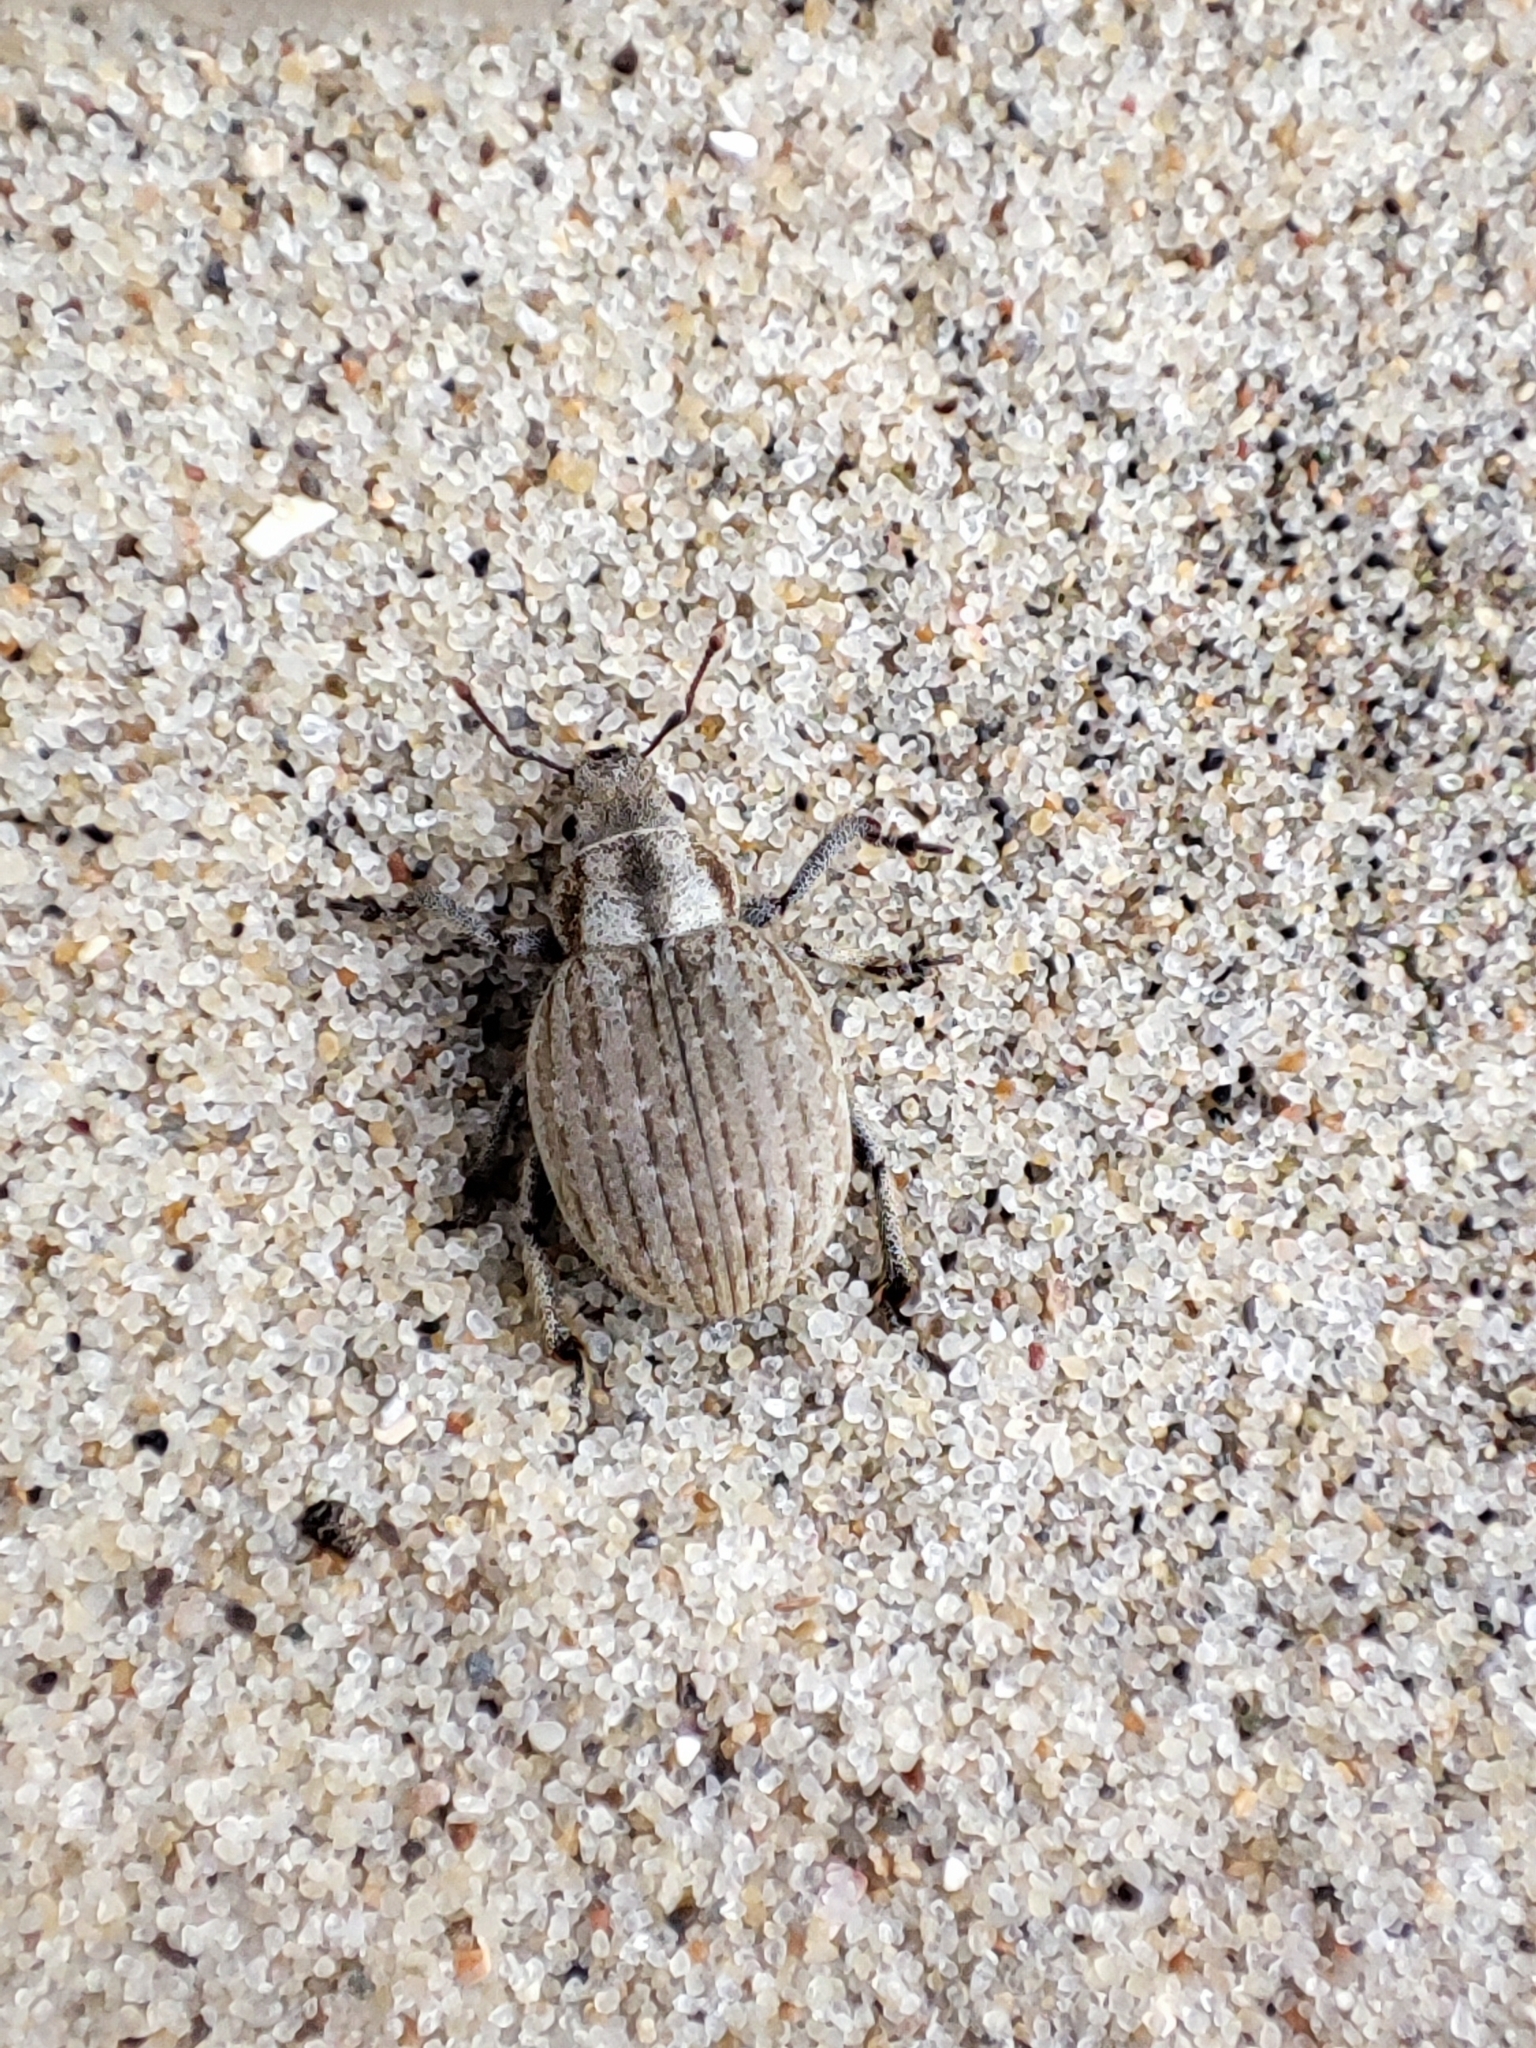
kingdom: Animalia
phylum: Arthropoda
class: Insecta
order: Coleoptera
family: Curculionidae
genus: Philopedon
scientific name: Philopedon plagiatum
